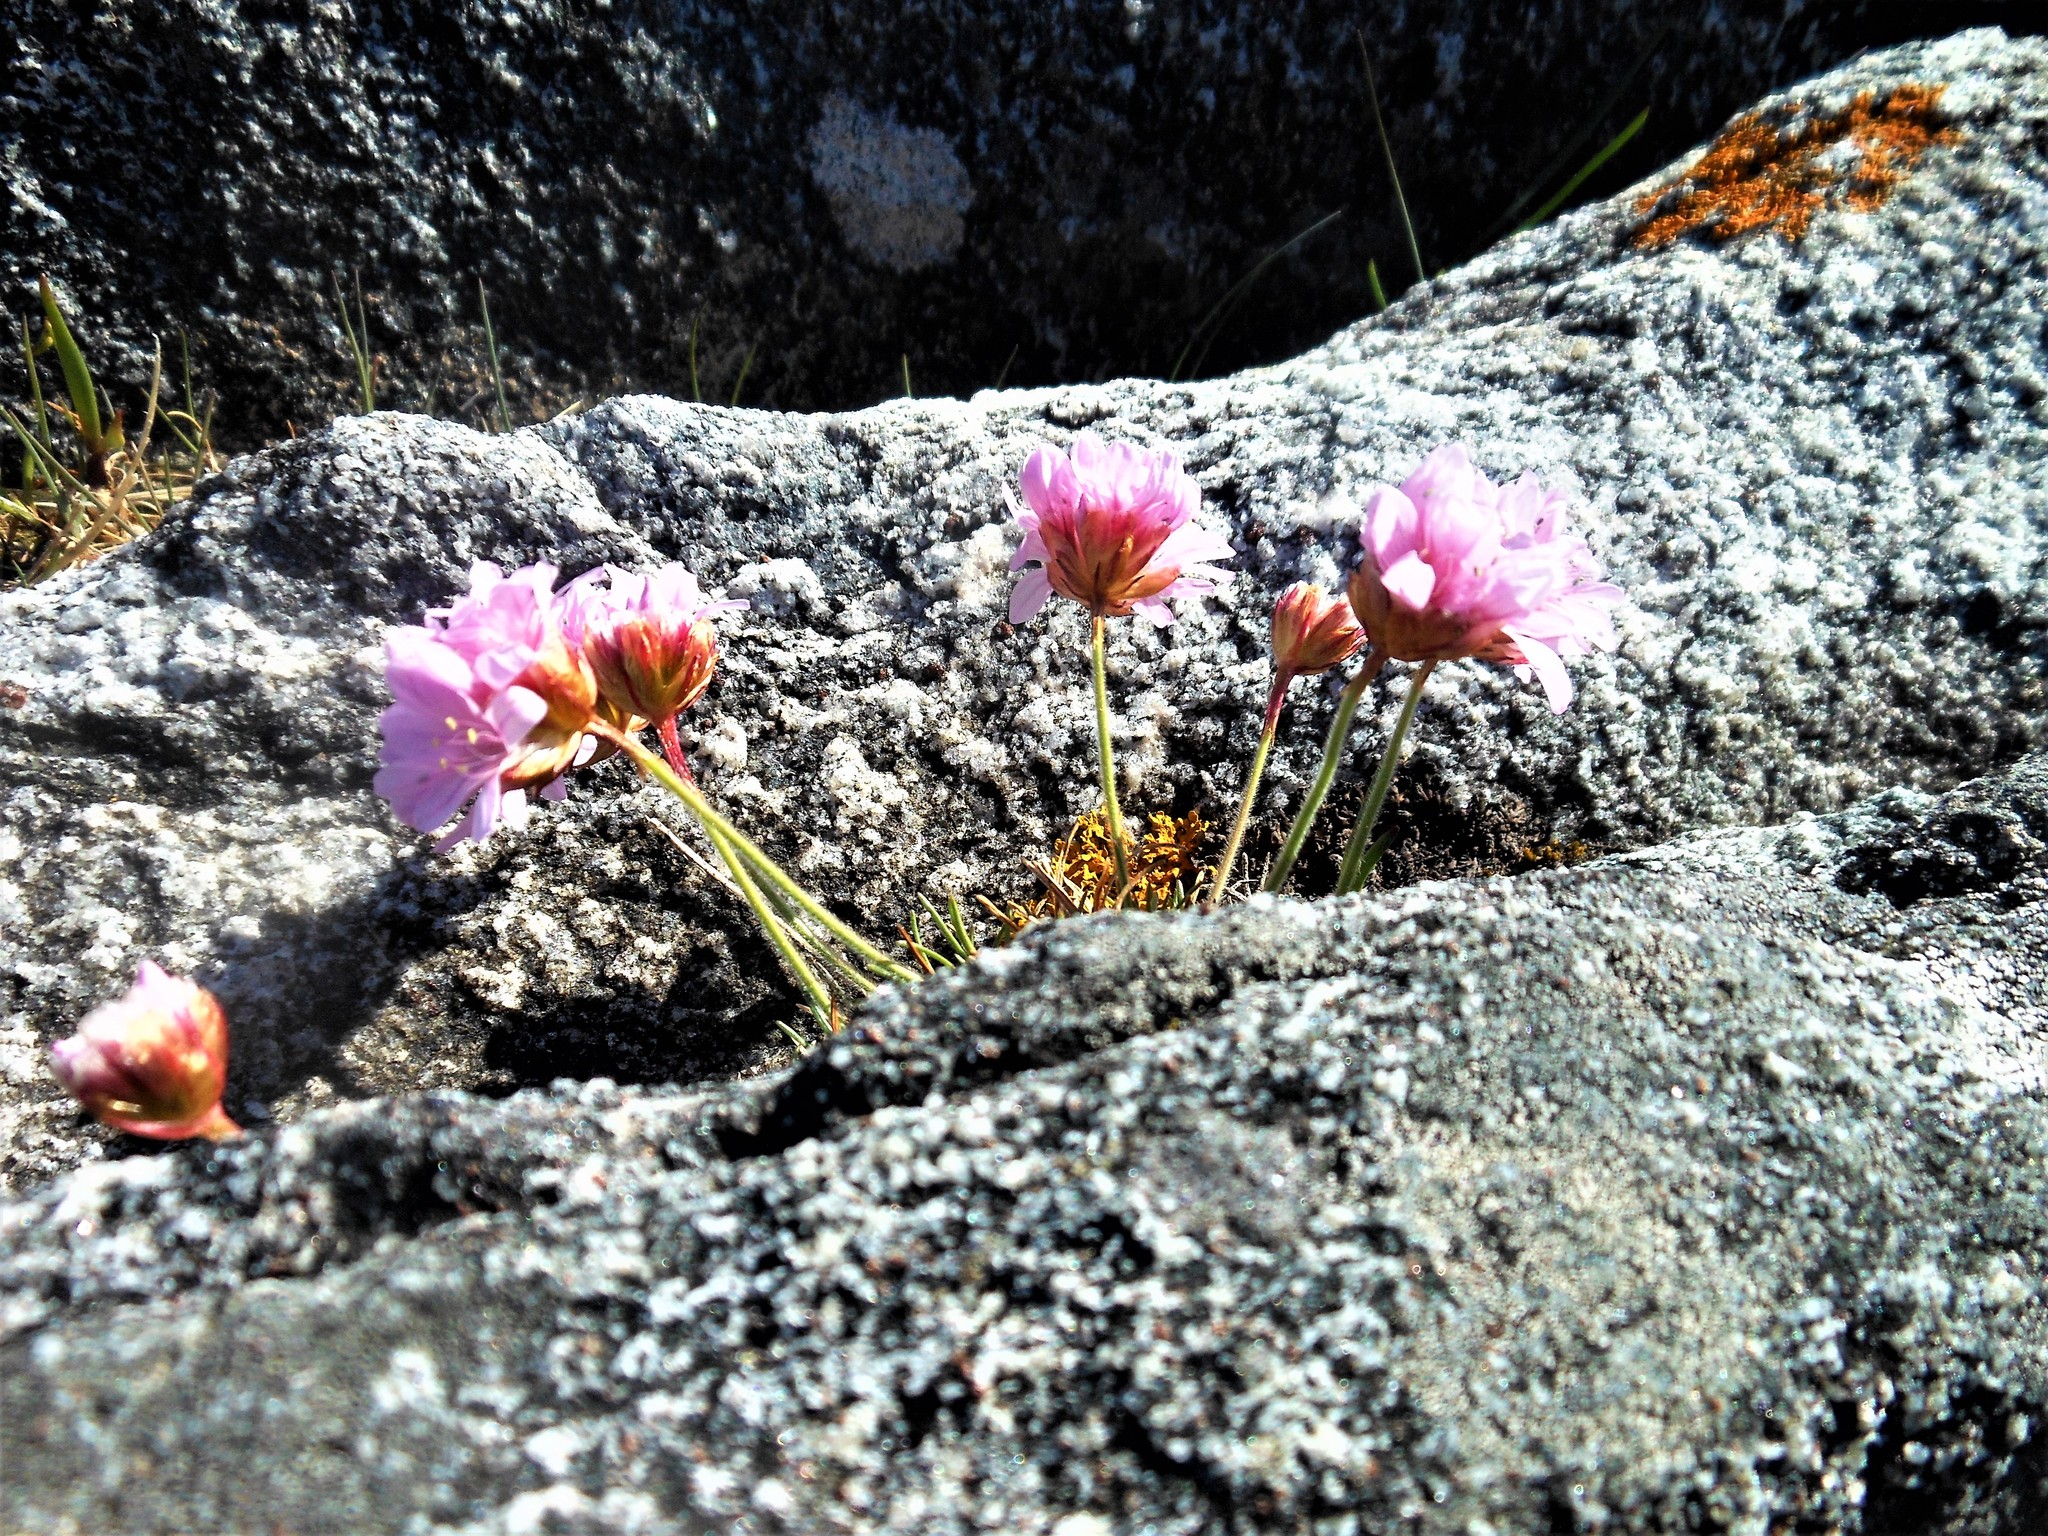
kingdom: Plantae
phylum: Tracheophyta
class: Magnoliopsida
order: Caryophyllales
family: Plumbaginaceae
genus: Armeria
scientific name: Armeria maritima
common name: Thrift
